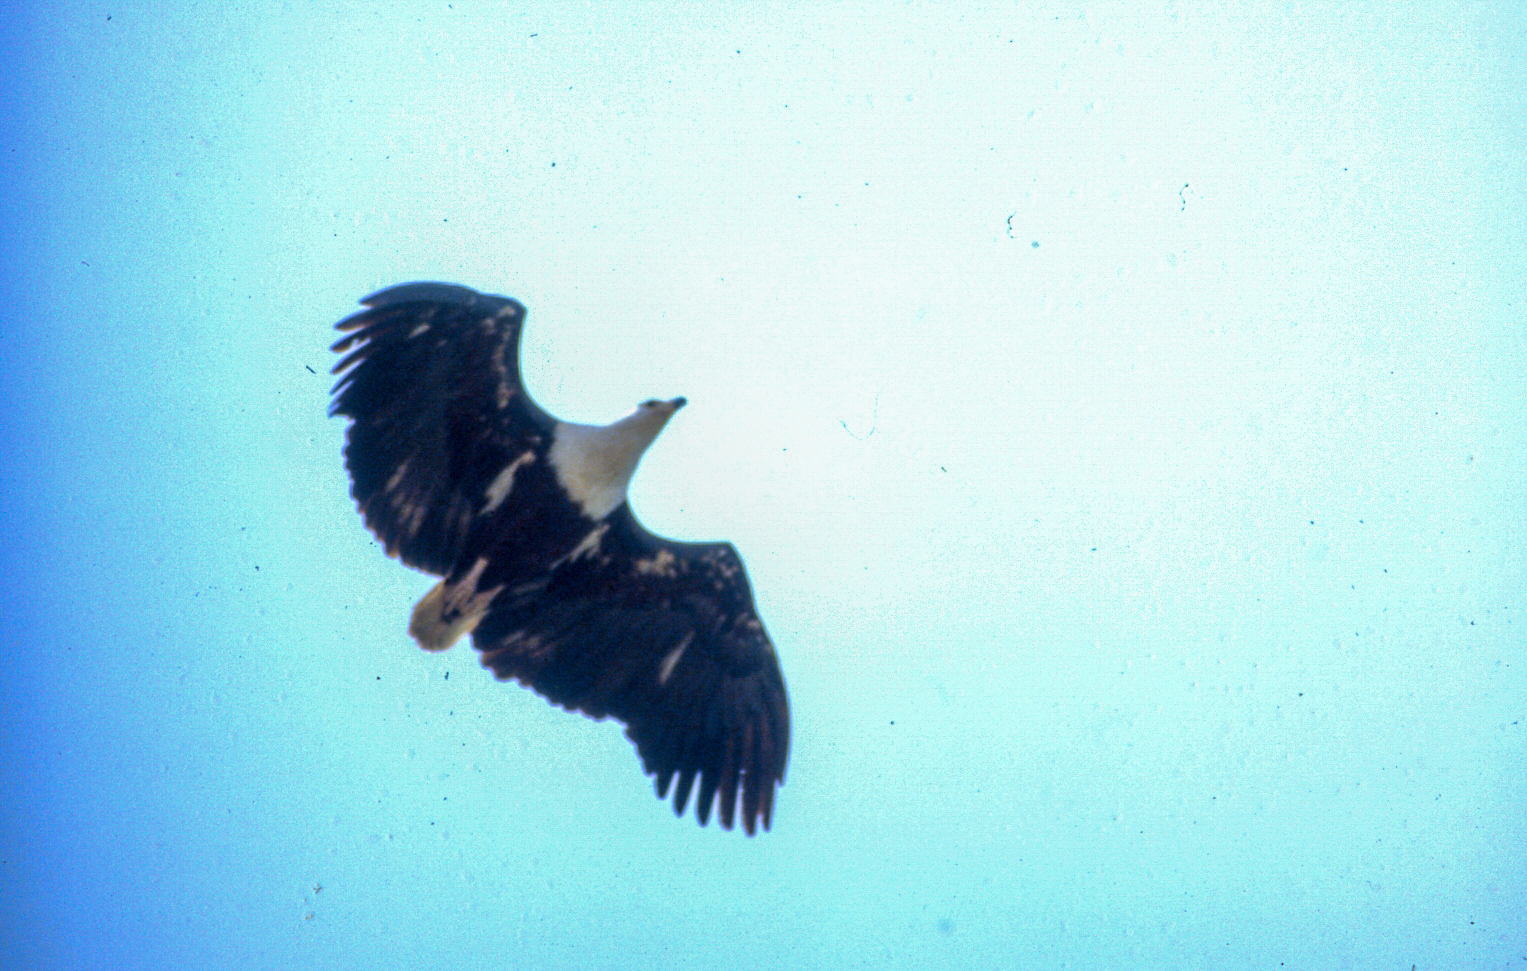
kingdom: Animalia
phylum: Chordata
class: Aves
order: Accipitriformes
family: Accipitridae
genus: Haliaeetus
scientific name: Haliaeetus vocifer
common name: African fish eagle
